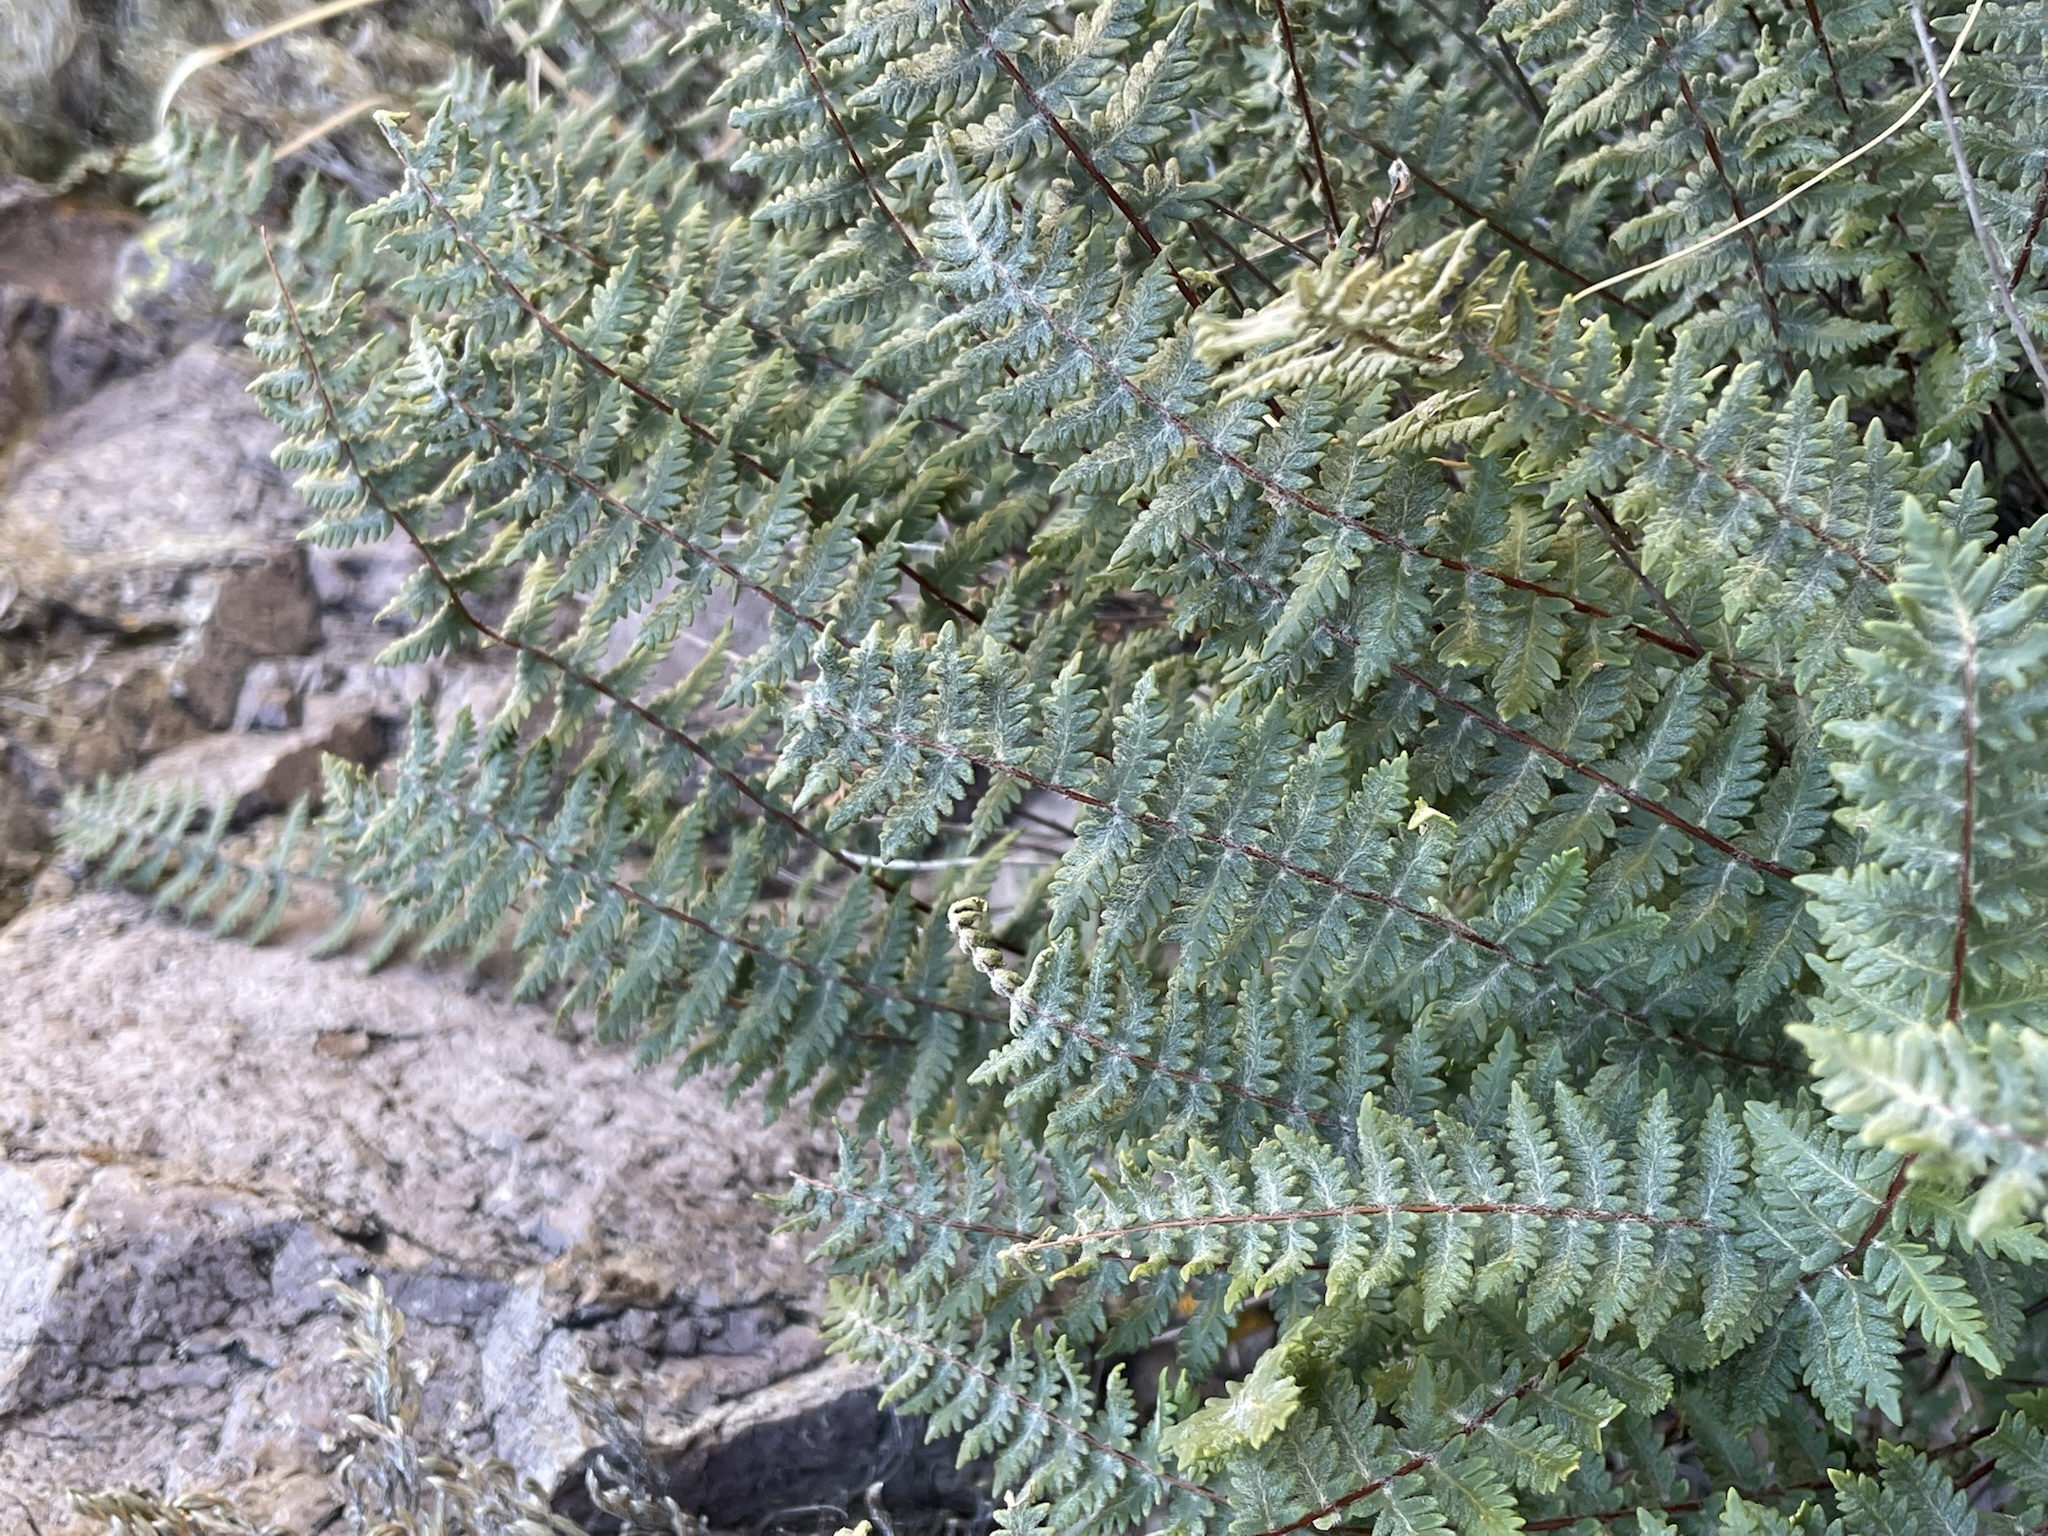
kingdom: Plantae
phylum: Tracheophyta
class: Polypodiopsida
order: Polypodiales
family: Pteridaceae
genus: Myriopteris
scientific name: Myriopteris aurea
